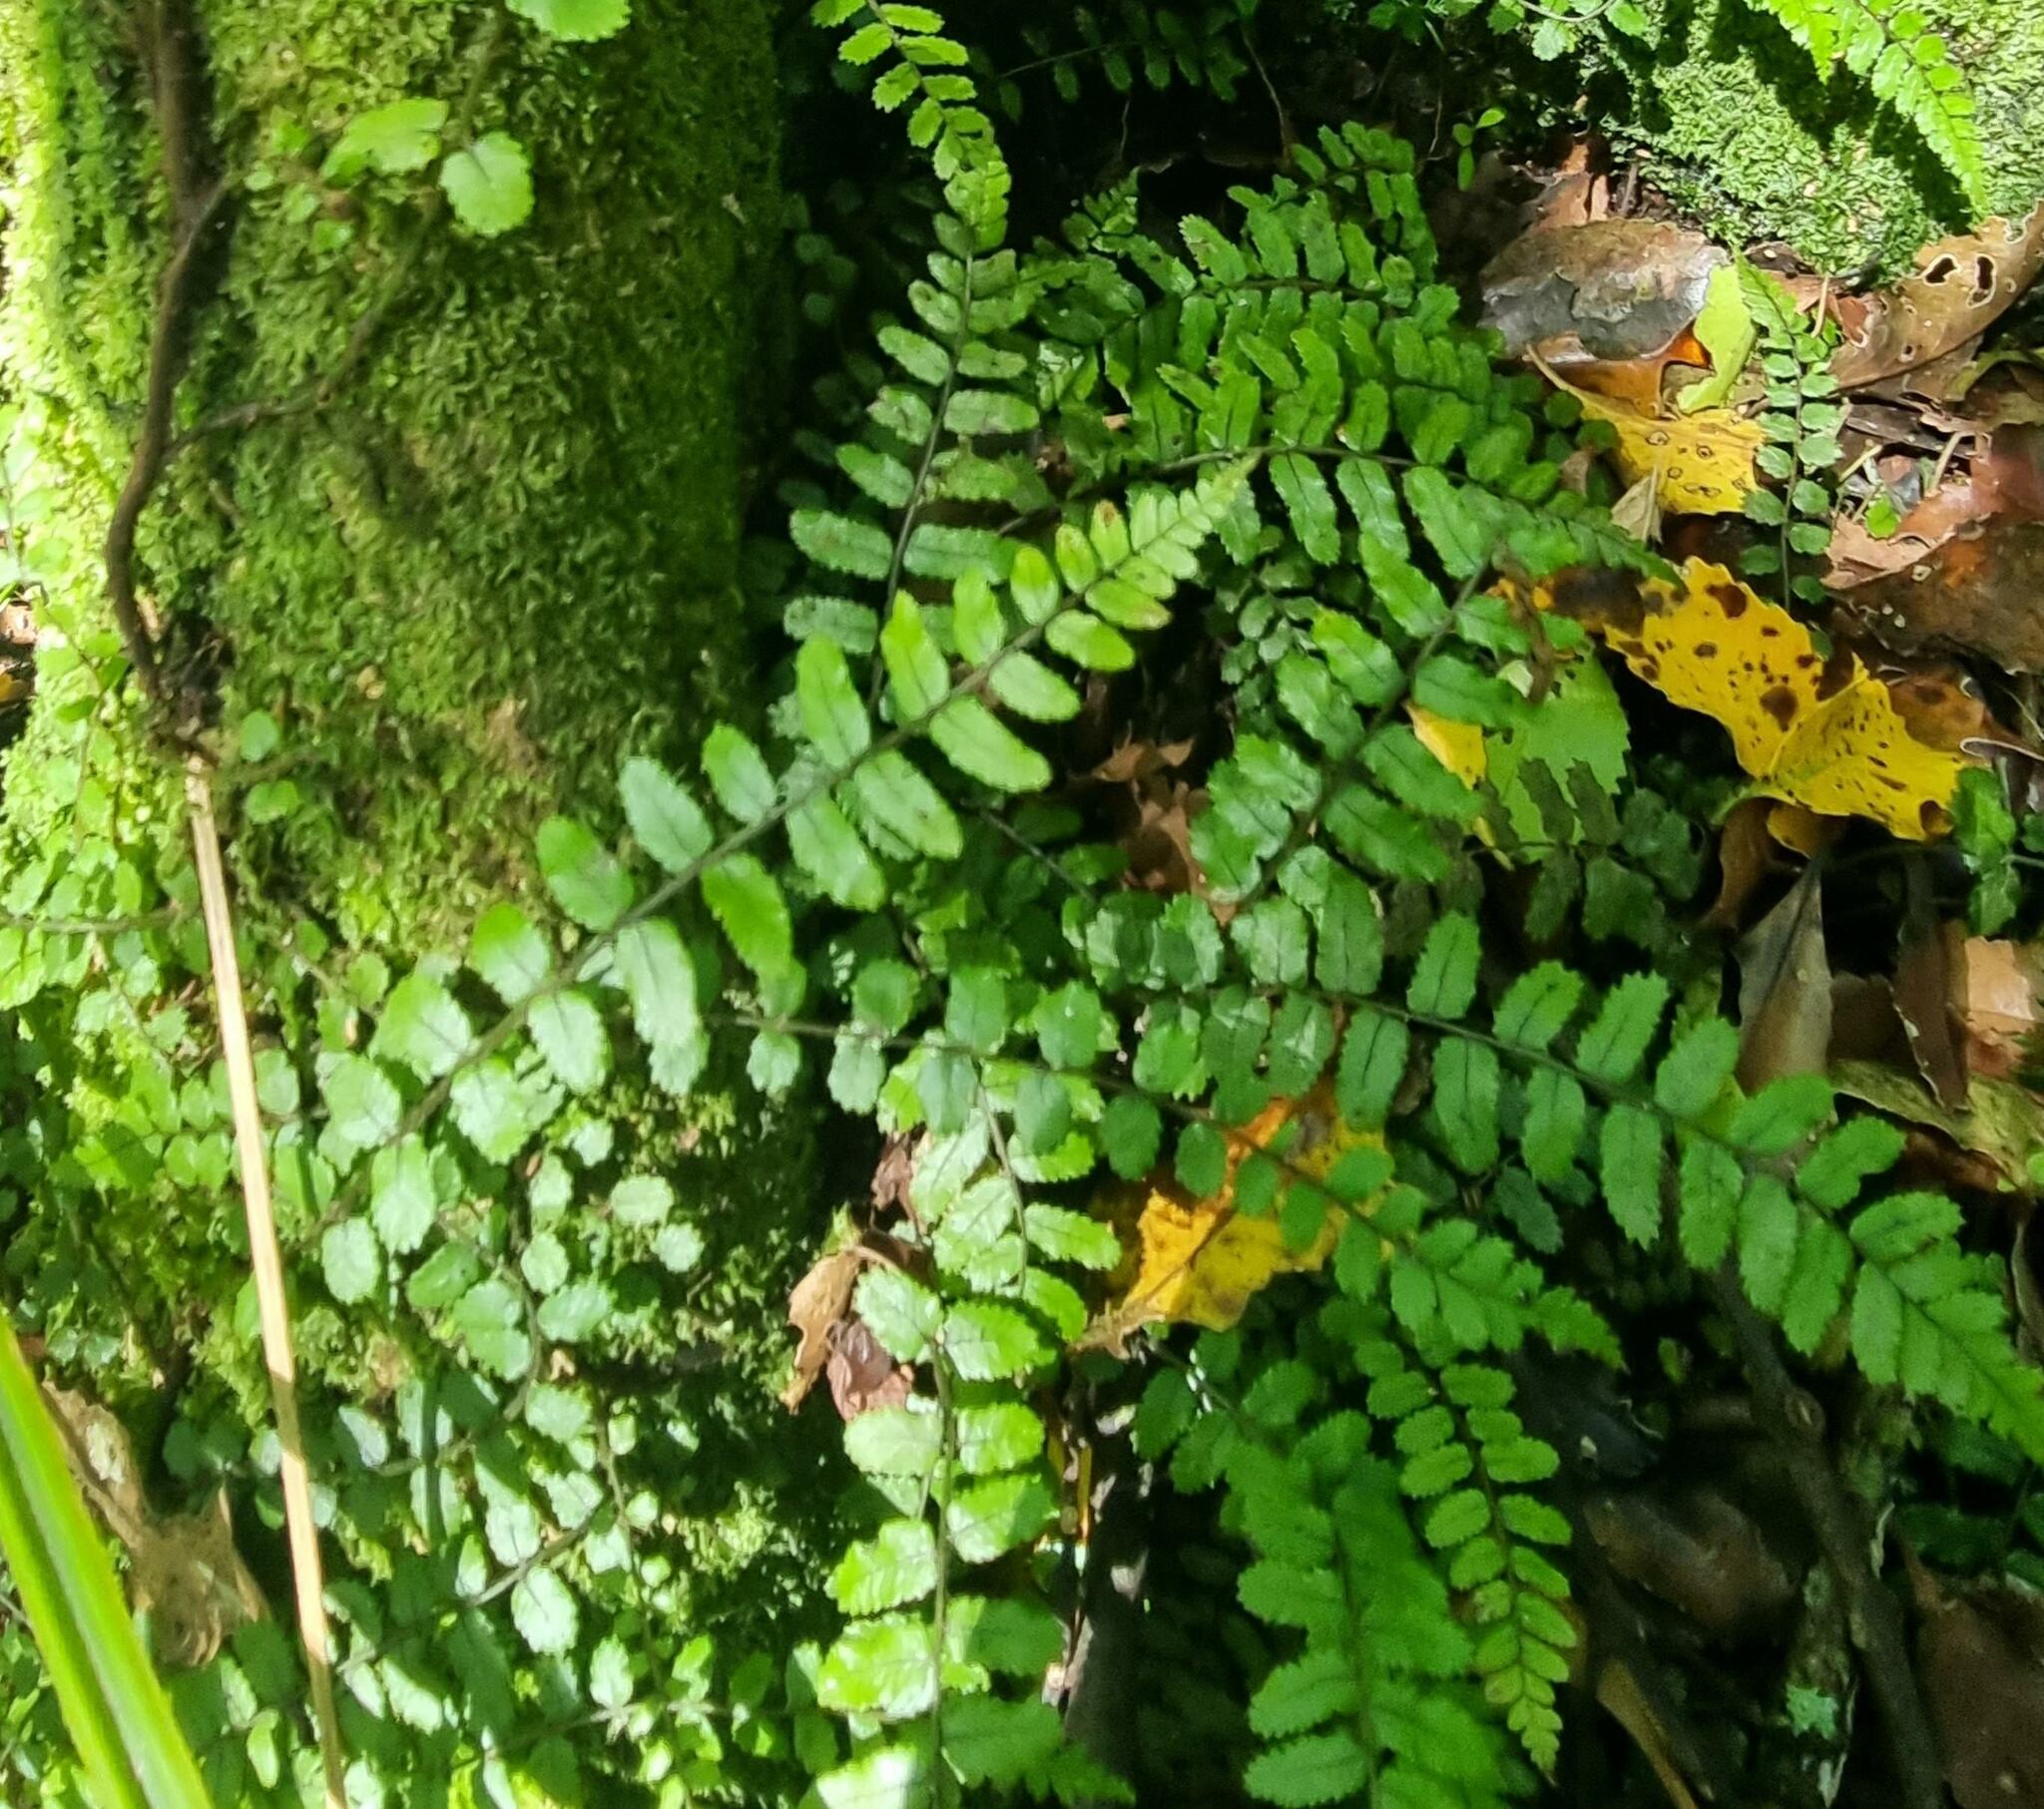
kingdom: Plantae
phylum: Tracheophyta
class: Polypodiopsida
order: Polypodiales
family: Blechnaceae
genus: Icarus
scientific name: Icarus filiformis
